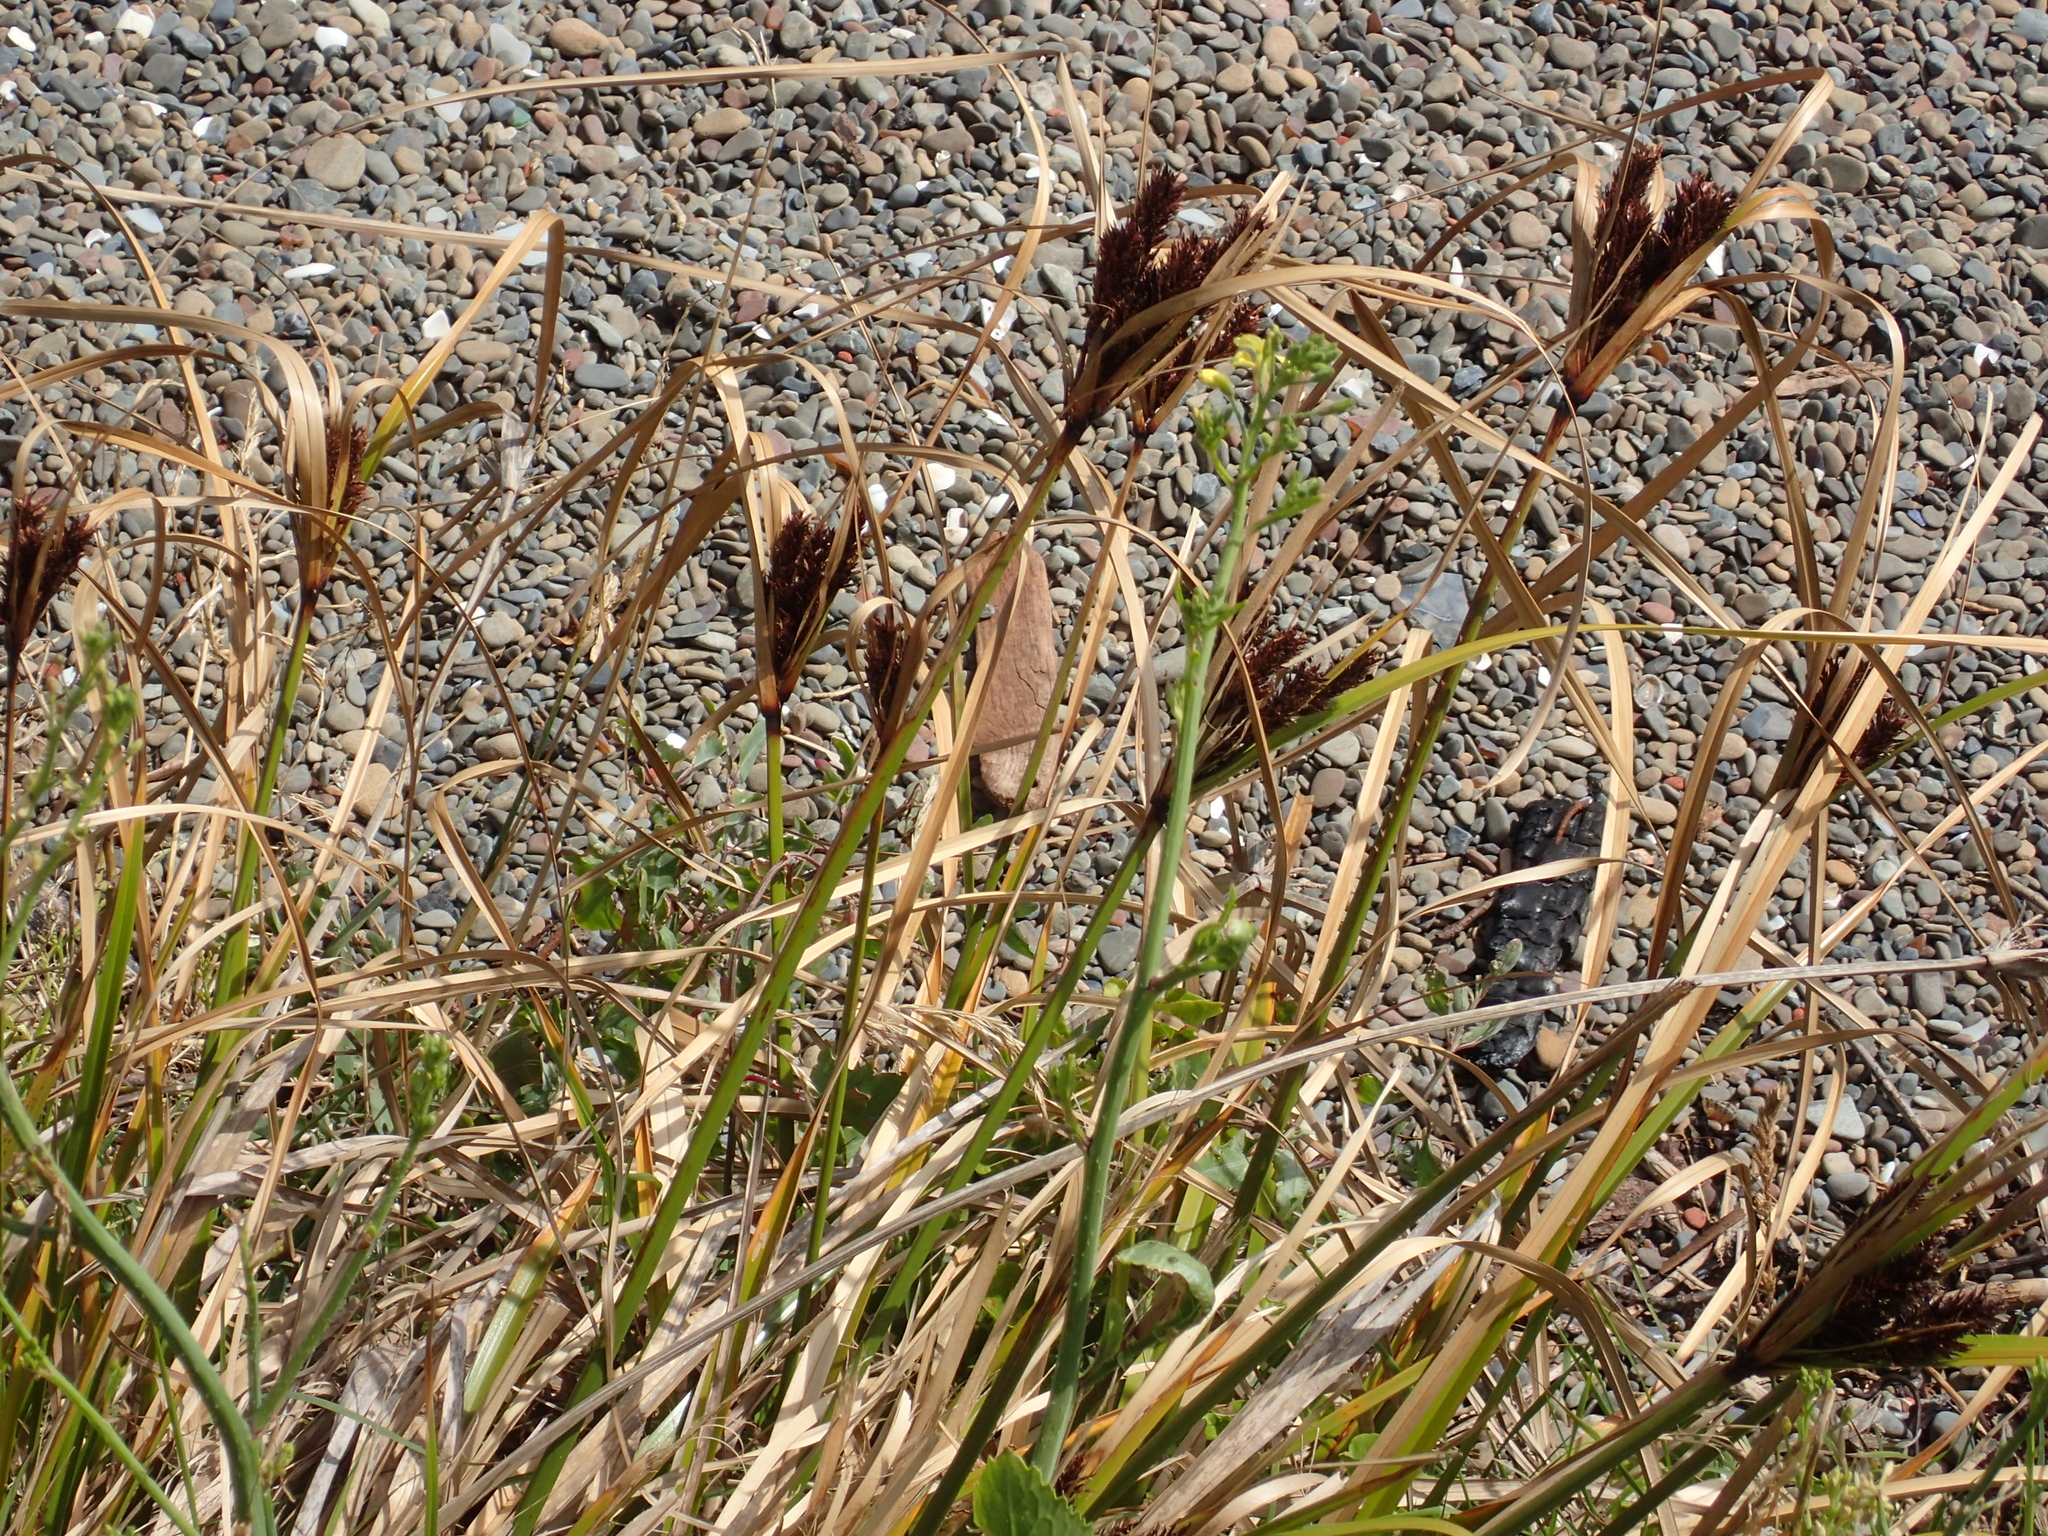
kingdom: Plantae
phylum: Tracheophyta
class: Liliopsida
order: Poales
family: Cyperaceae
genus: Cyperus
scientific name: Cyperus ustulatus
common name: Giant umbrella-sedge
